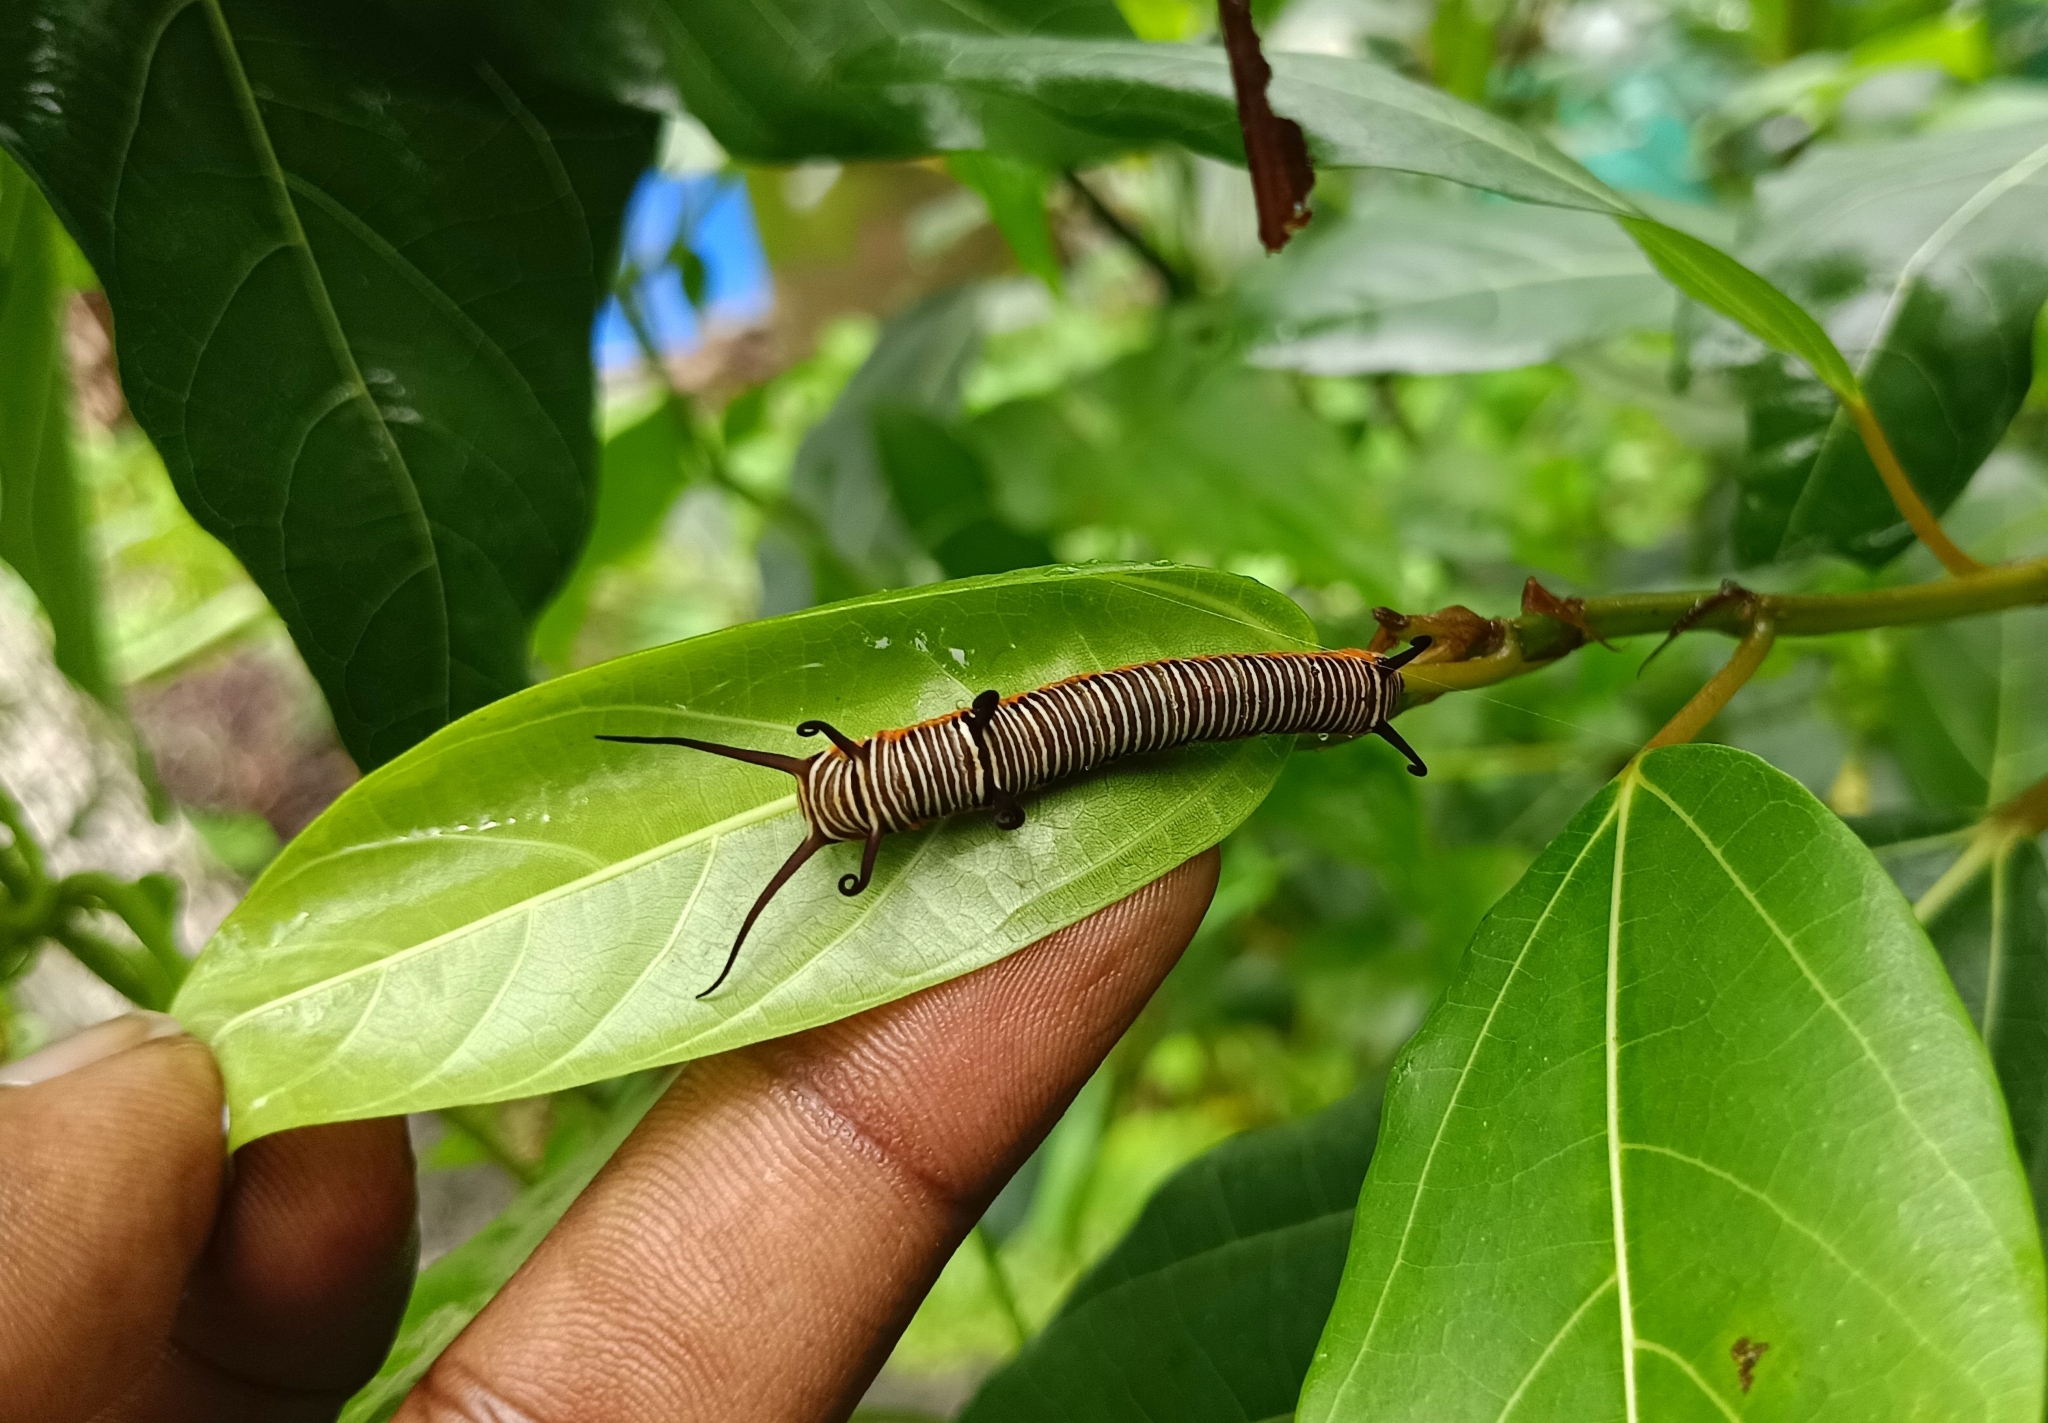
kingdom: Animalia
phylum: Arthropoda
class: Insecta
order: Lepidoptera
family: Nymphalidae
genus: Euploea
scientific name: Euploea core
